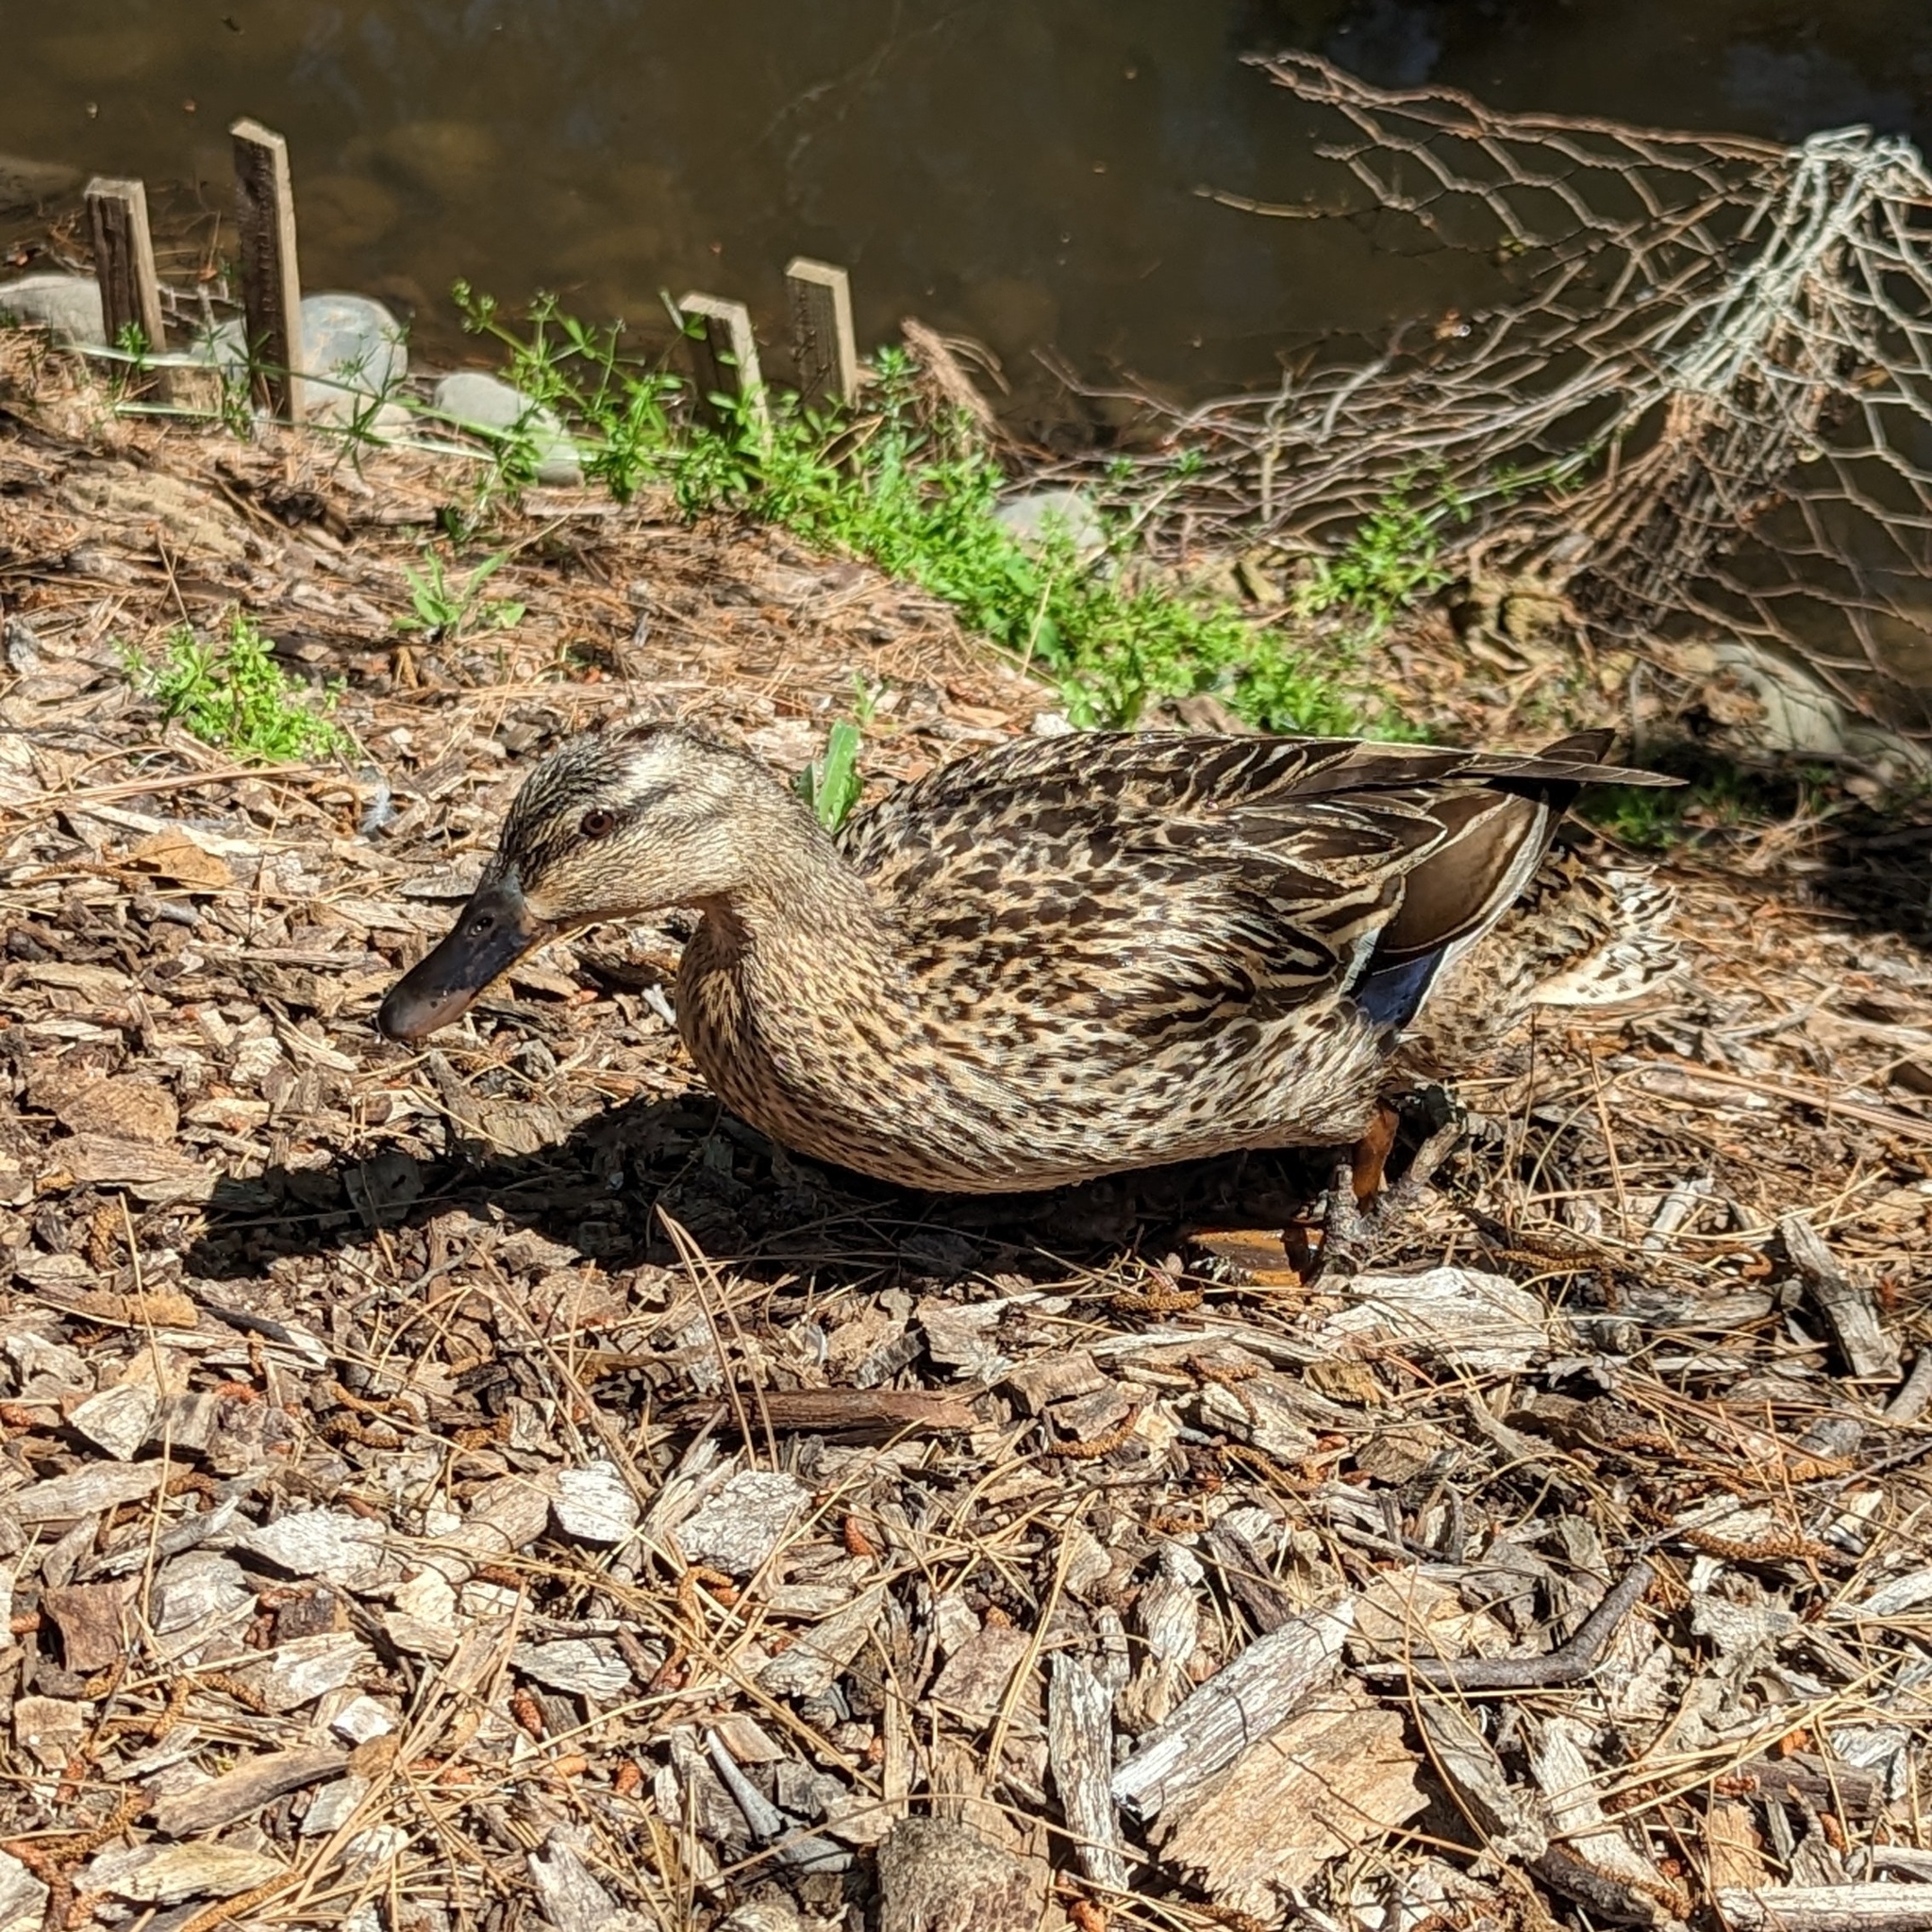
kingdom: Animalia
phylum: Chordata
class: Aves
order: Anseriformes
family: Anatidae
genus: Anas
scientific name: Anas platyrhynchos
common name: Mallard
